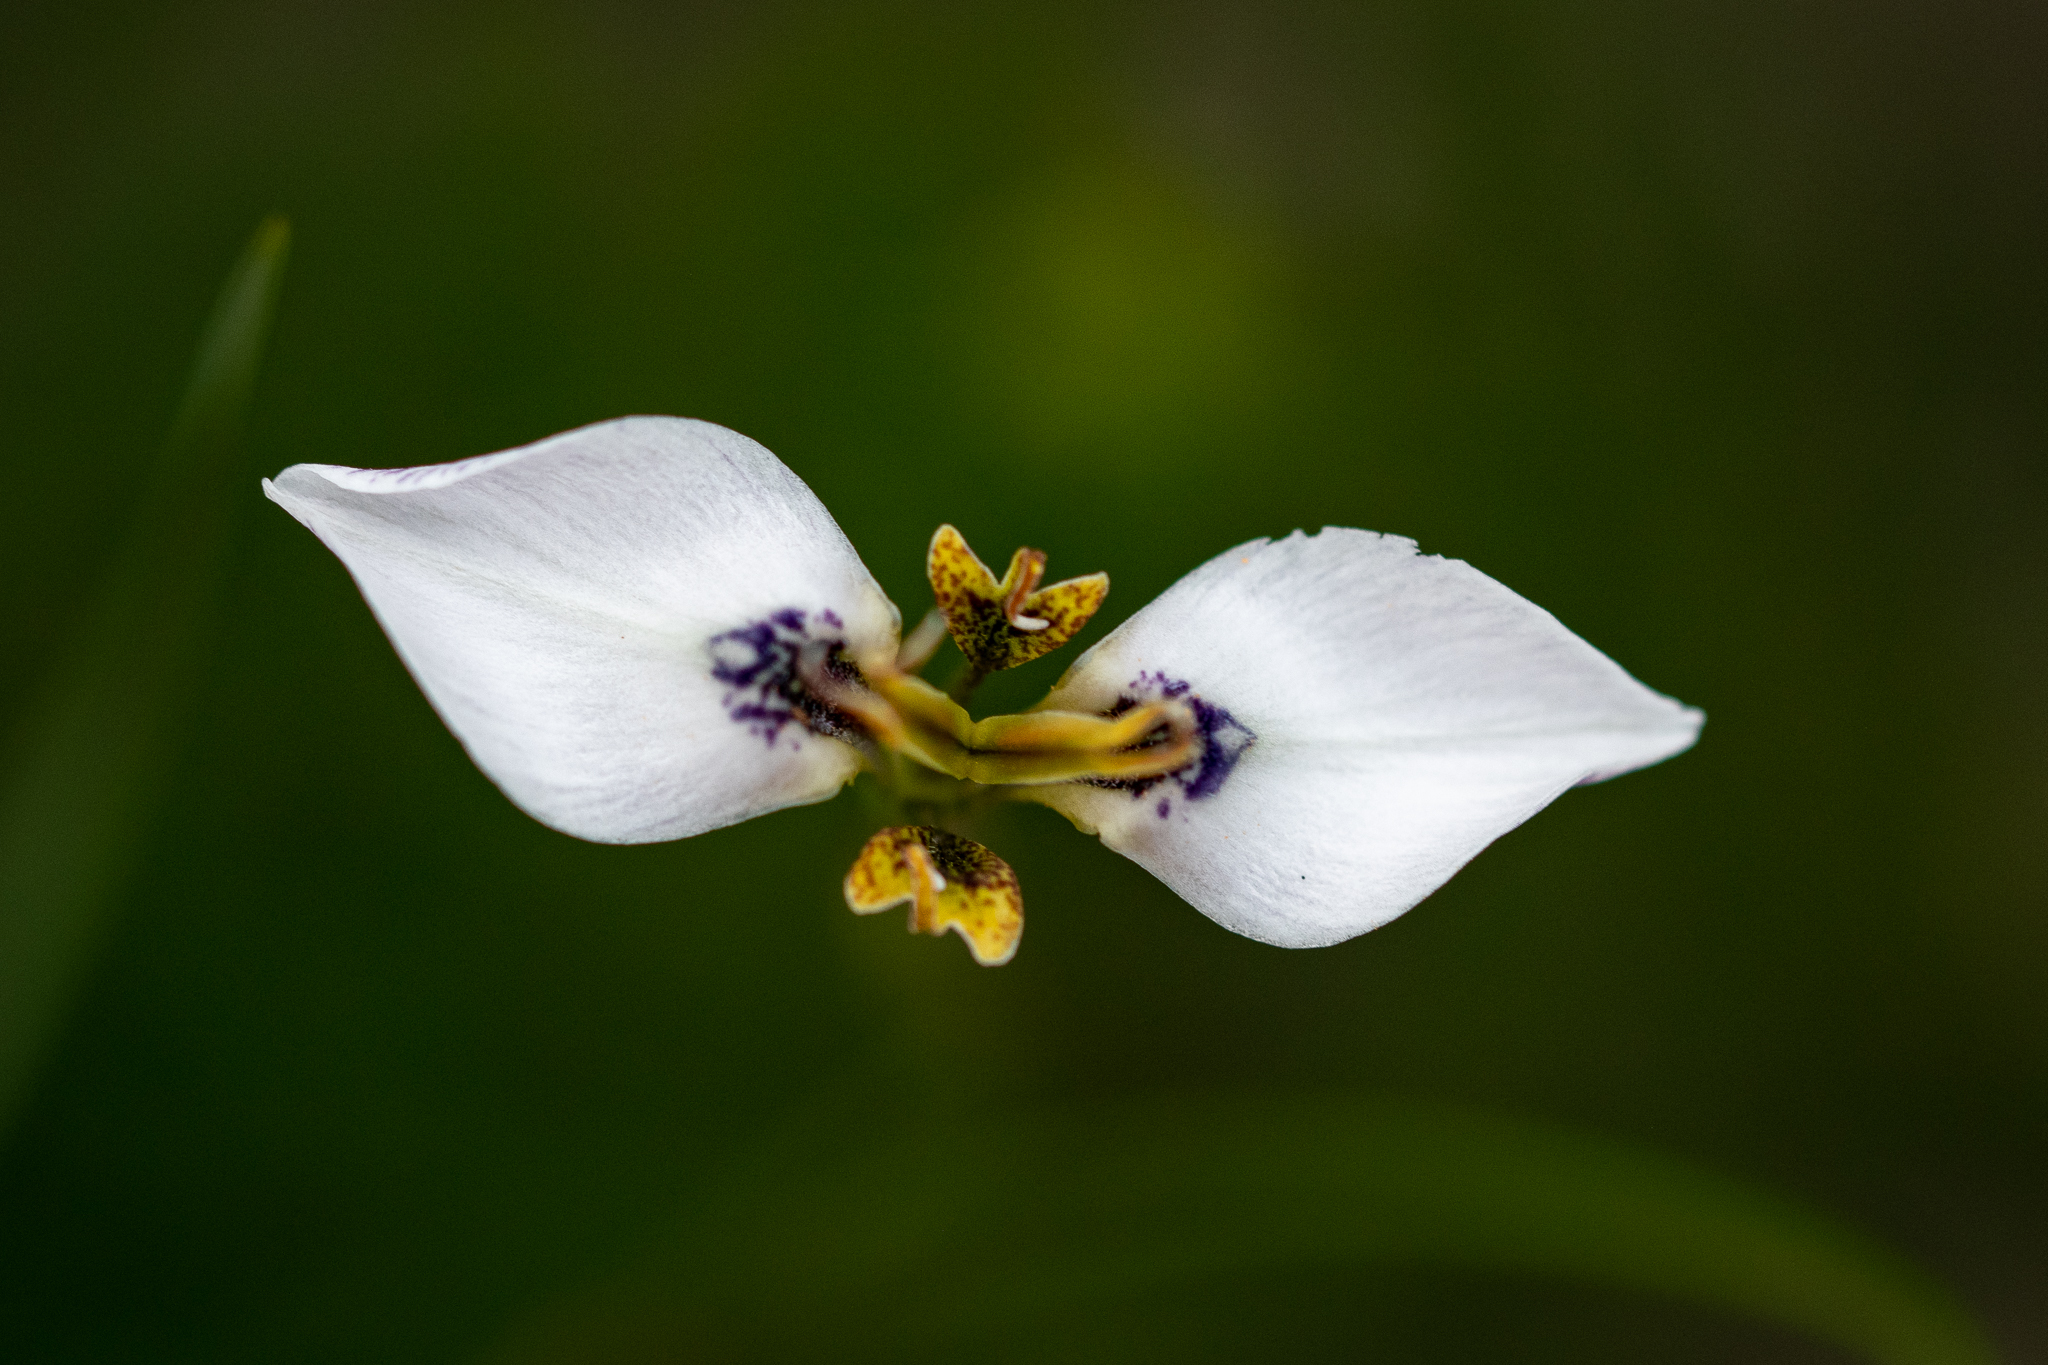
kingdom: Plantae
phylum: Tracheophyta
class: Liliopsida
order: Asparagales
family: Iridaceae
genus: Moraea
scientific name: Moraea unguiculata
